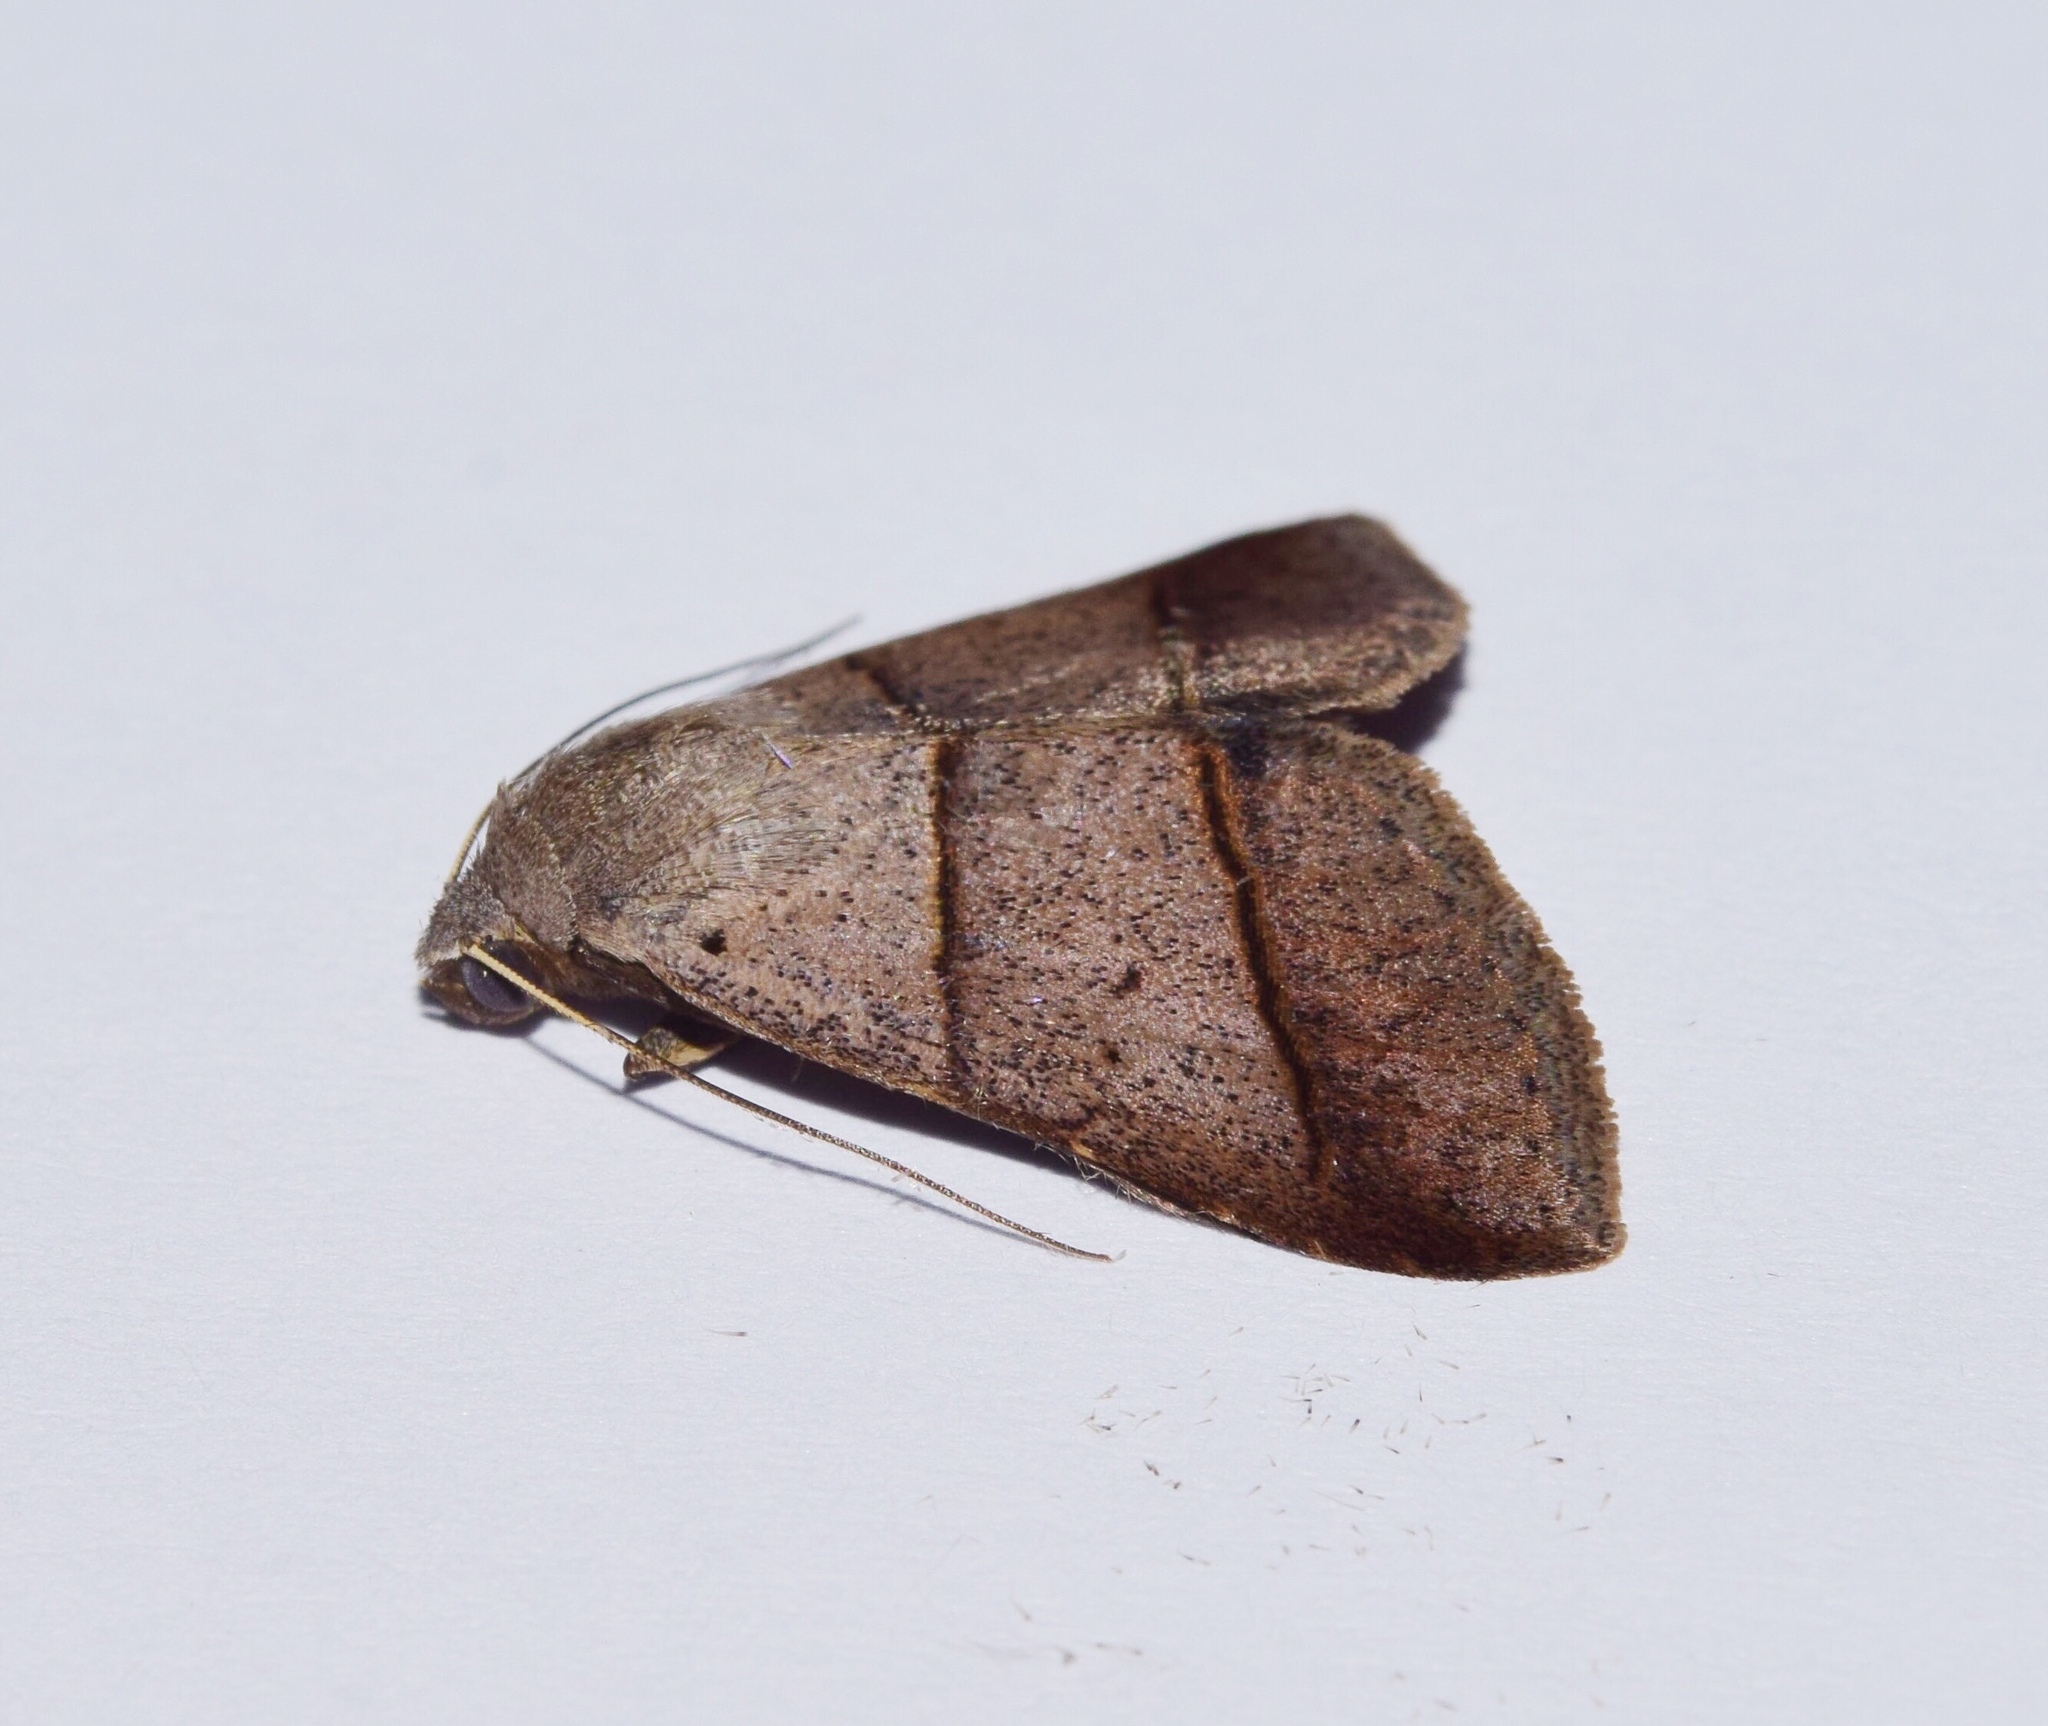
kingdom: Animalia
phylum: Arthropoda
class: Insecta
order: Lepidoptera
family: Erebidae
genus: Plecoptera
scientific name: Plecoptera laniata
